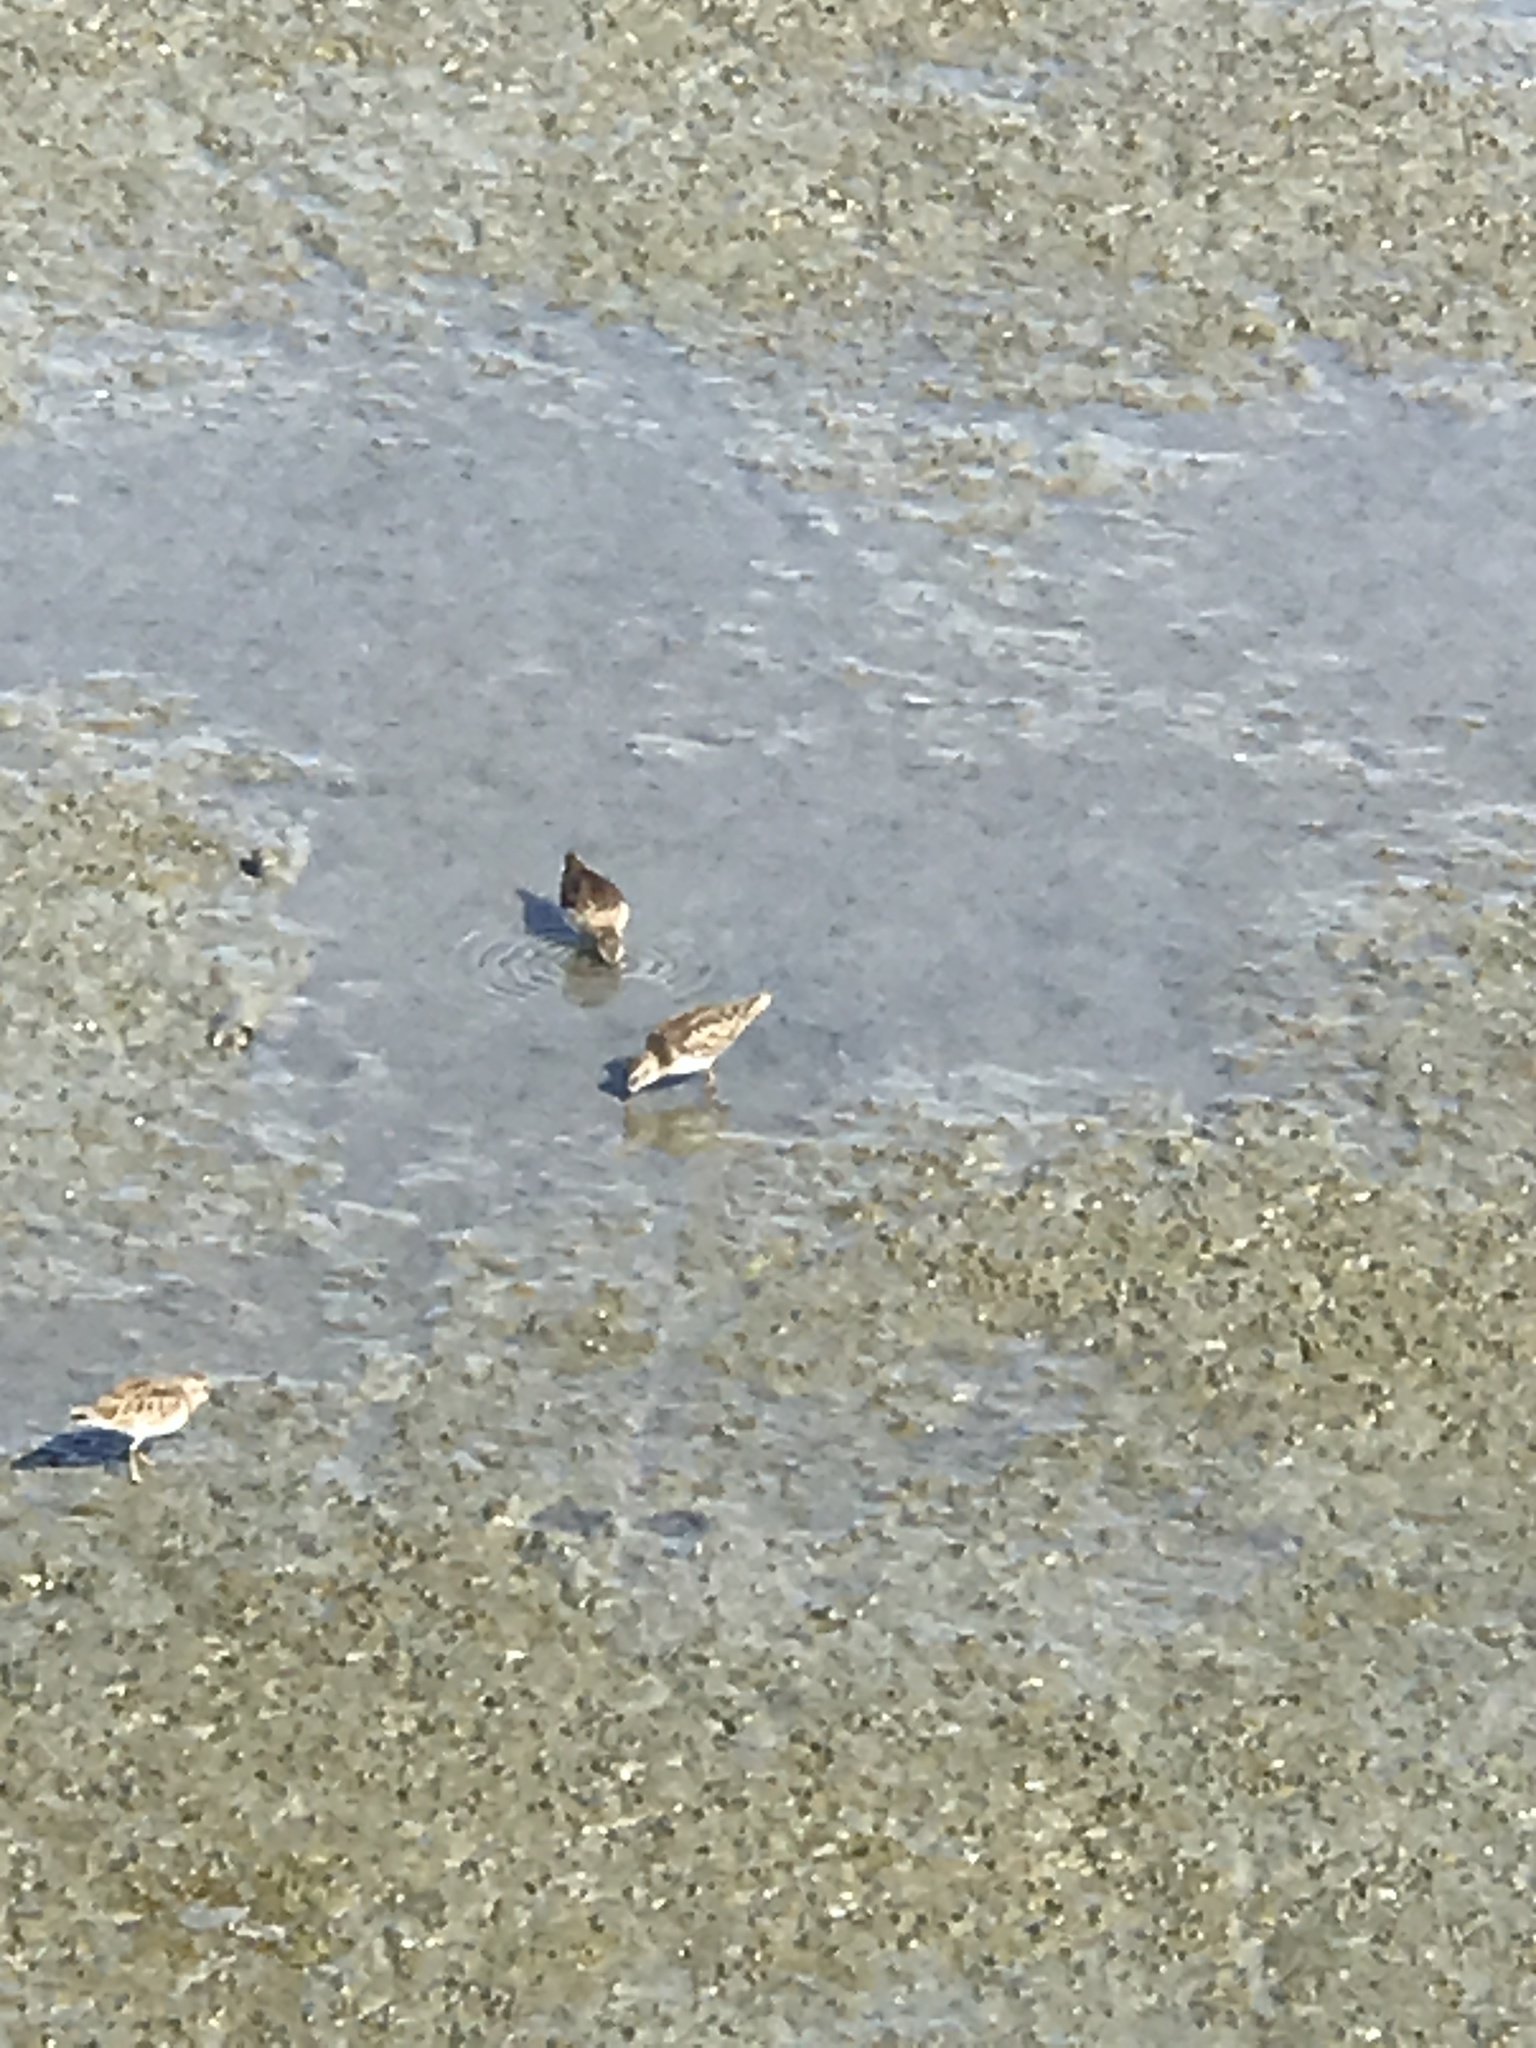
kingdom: Animalia
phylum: Chordata
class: Aves
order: Charadriiformes
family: Scolopacidae
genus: Calidris
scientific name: Calidris minutilla
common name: Least sandpiper
